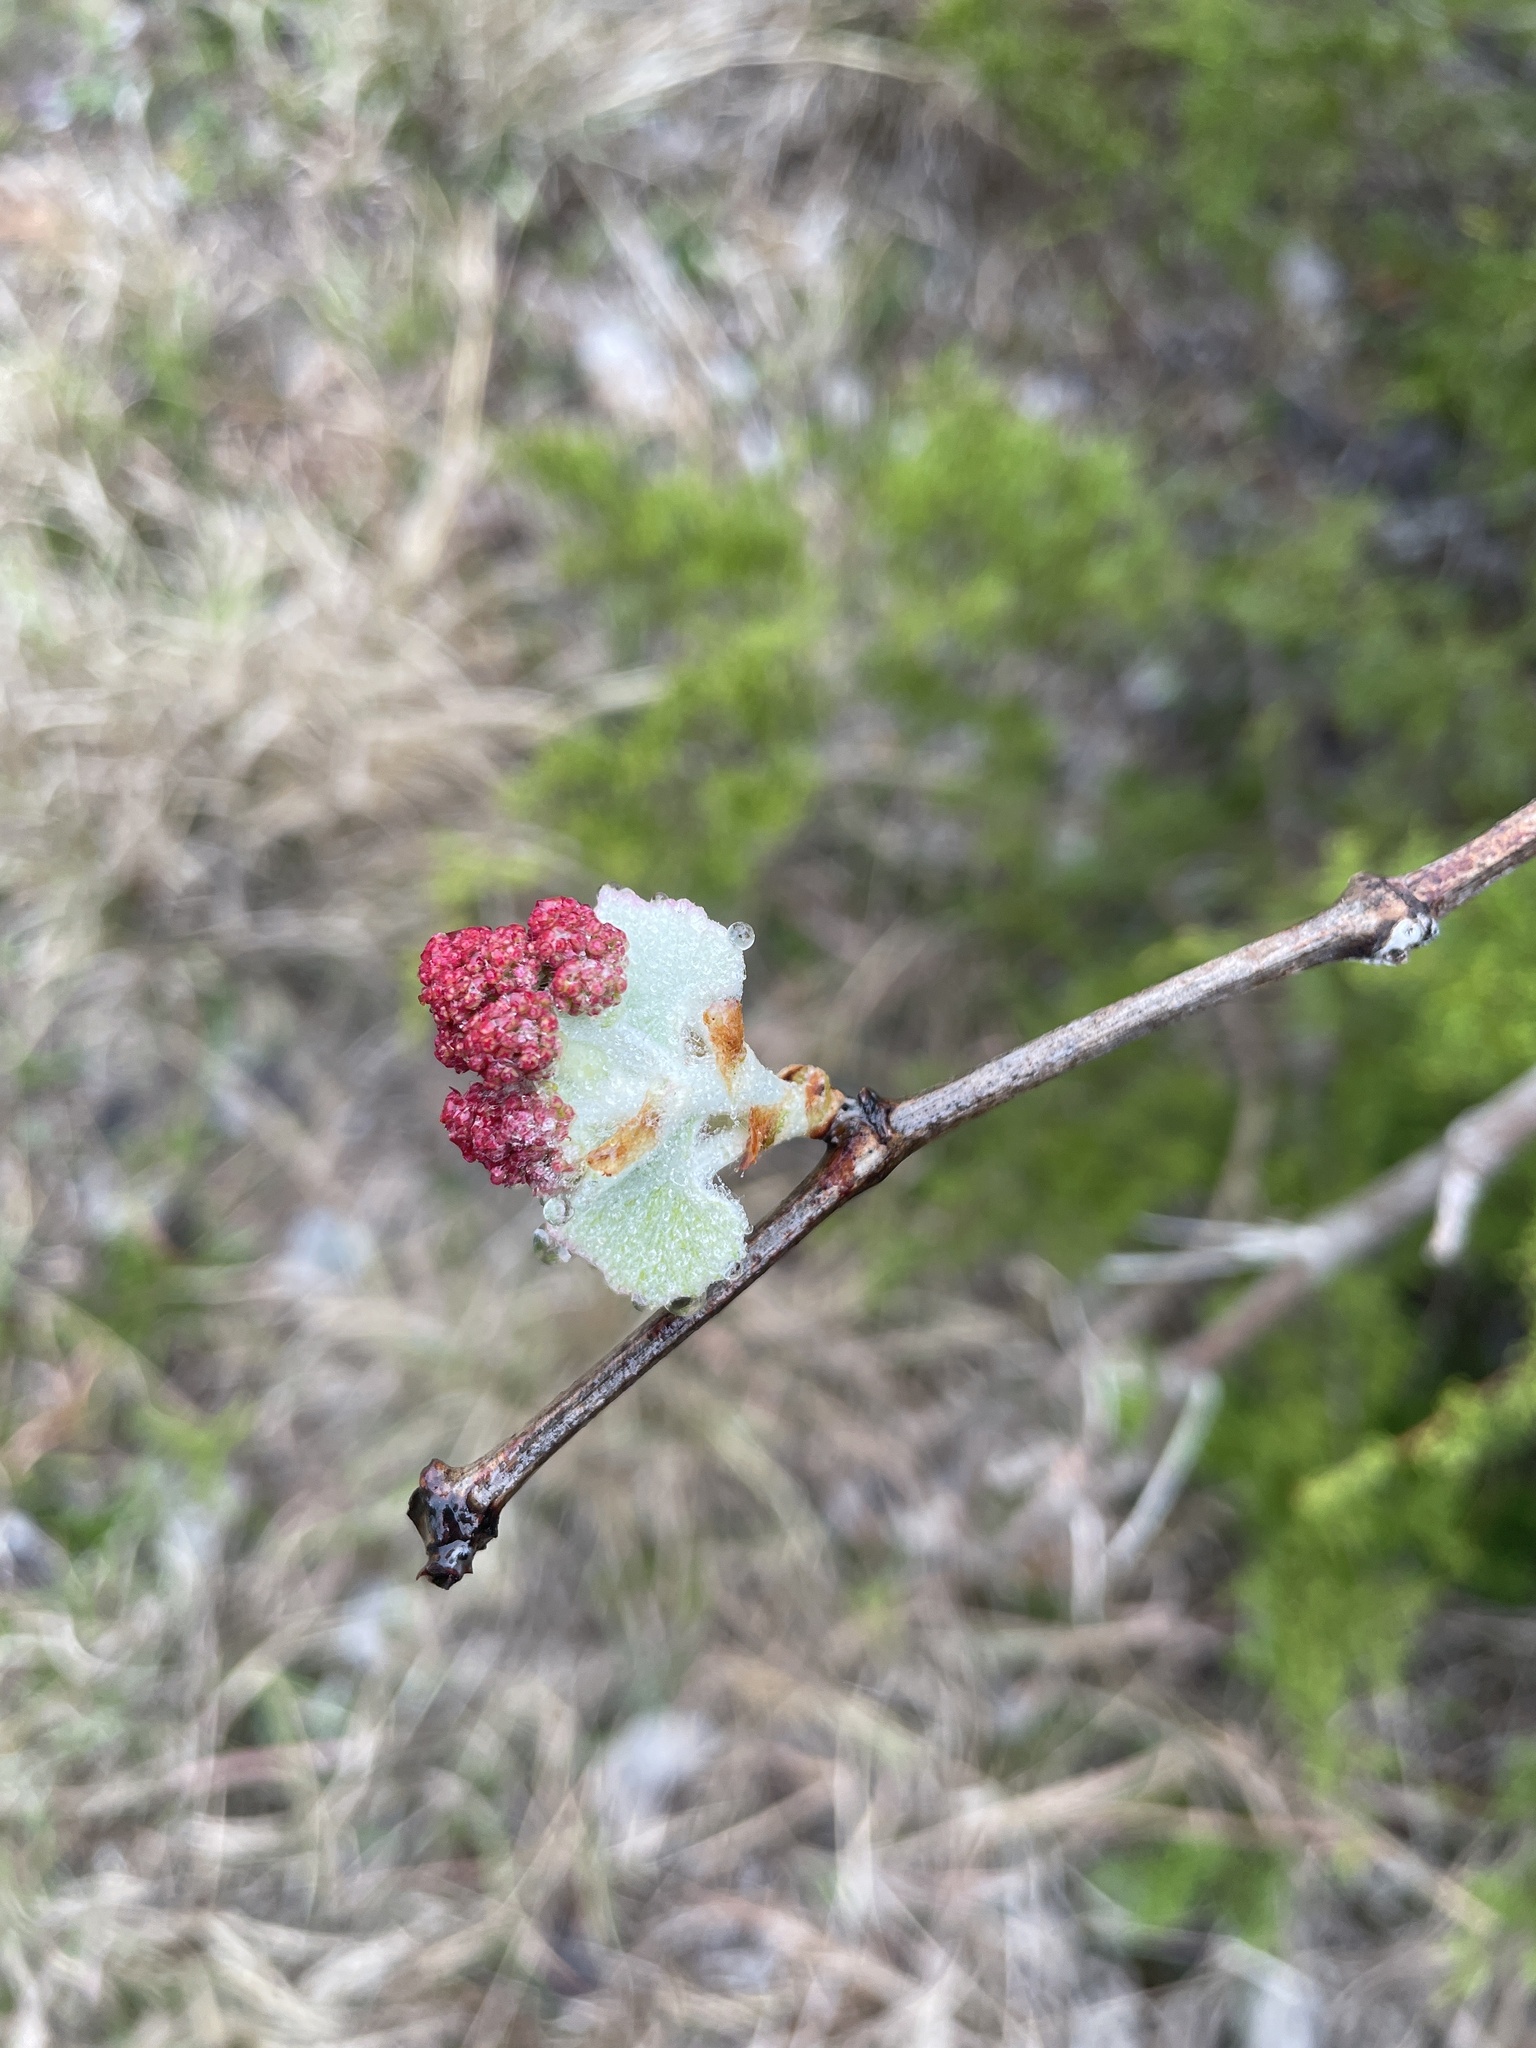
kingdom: Plantae
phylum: Tracheophyta
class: Magnoliopsida
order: Vitales
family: Vitaceae
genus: Vitis
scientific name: Vitis mustangensis
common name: Mustang grape
